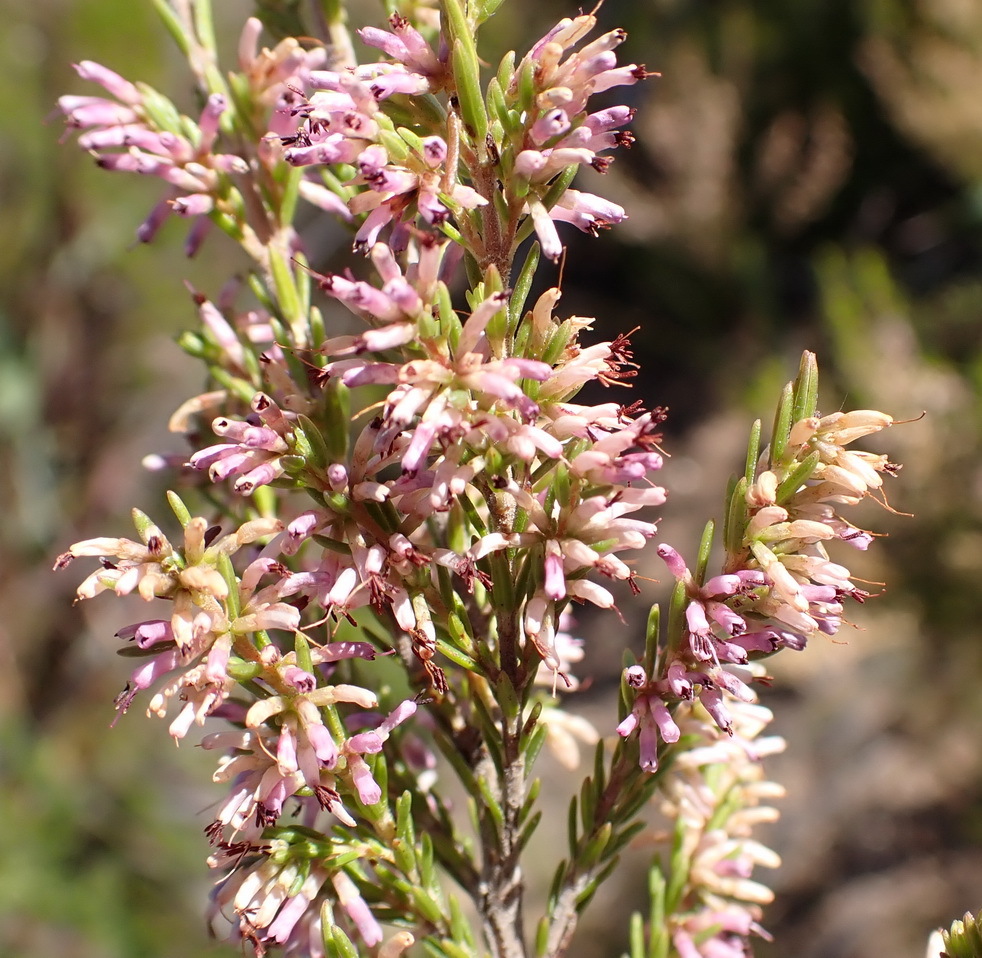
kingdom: Plantae
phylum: Tracheophyta
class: Magnoliopsida
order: Ericales
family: Ericaceae
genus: Erica
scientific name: Erica uberiflora
